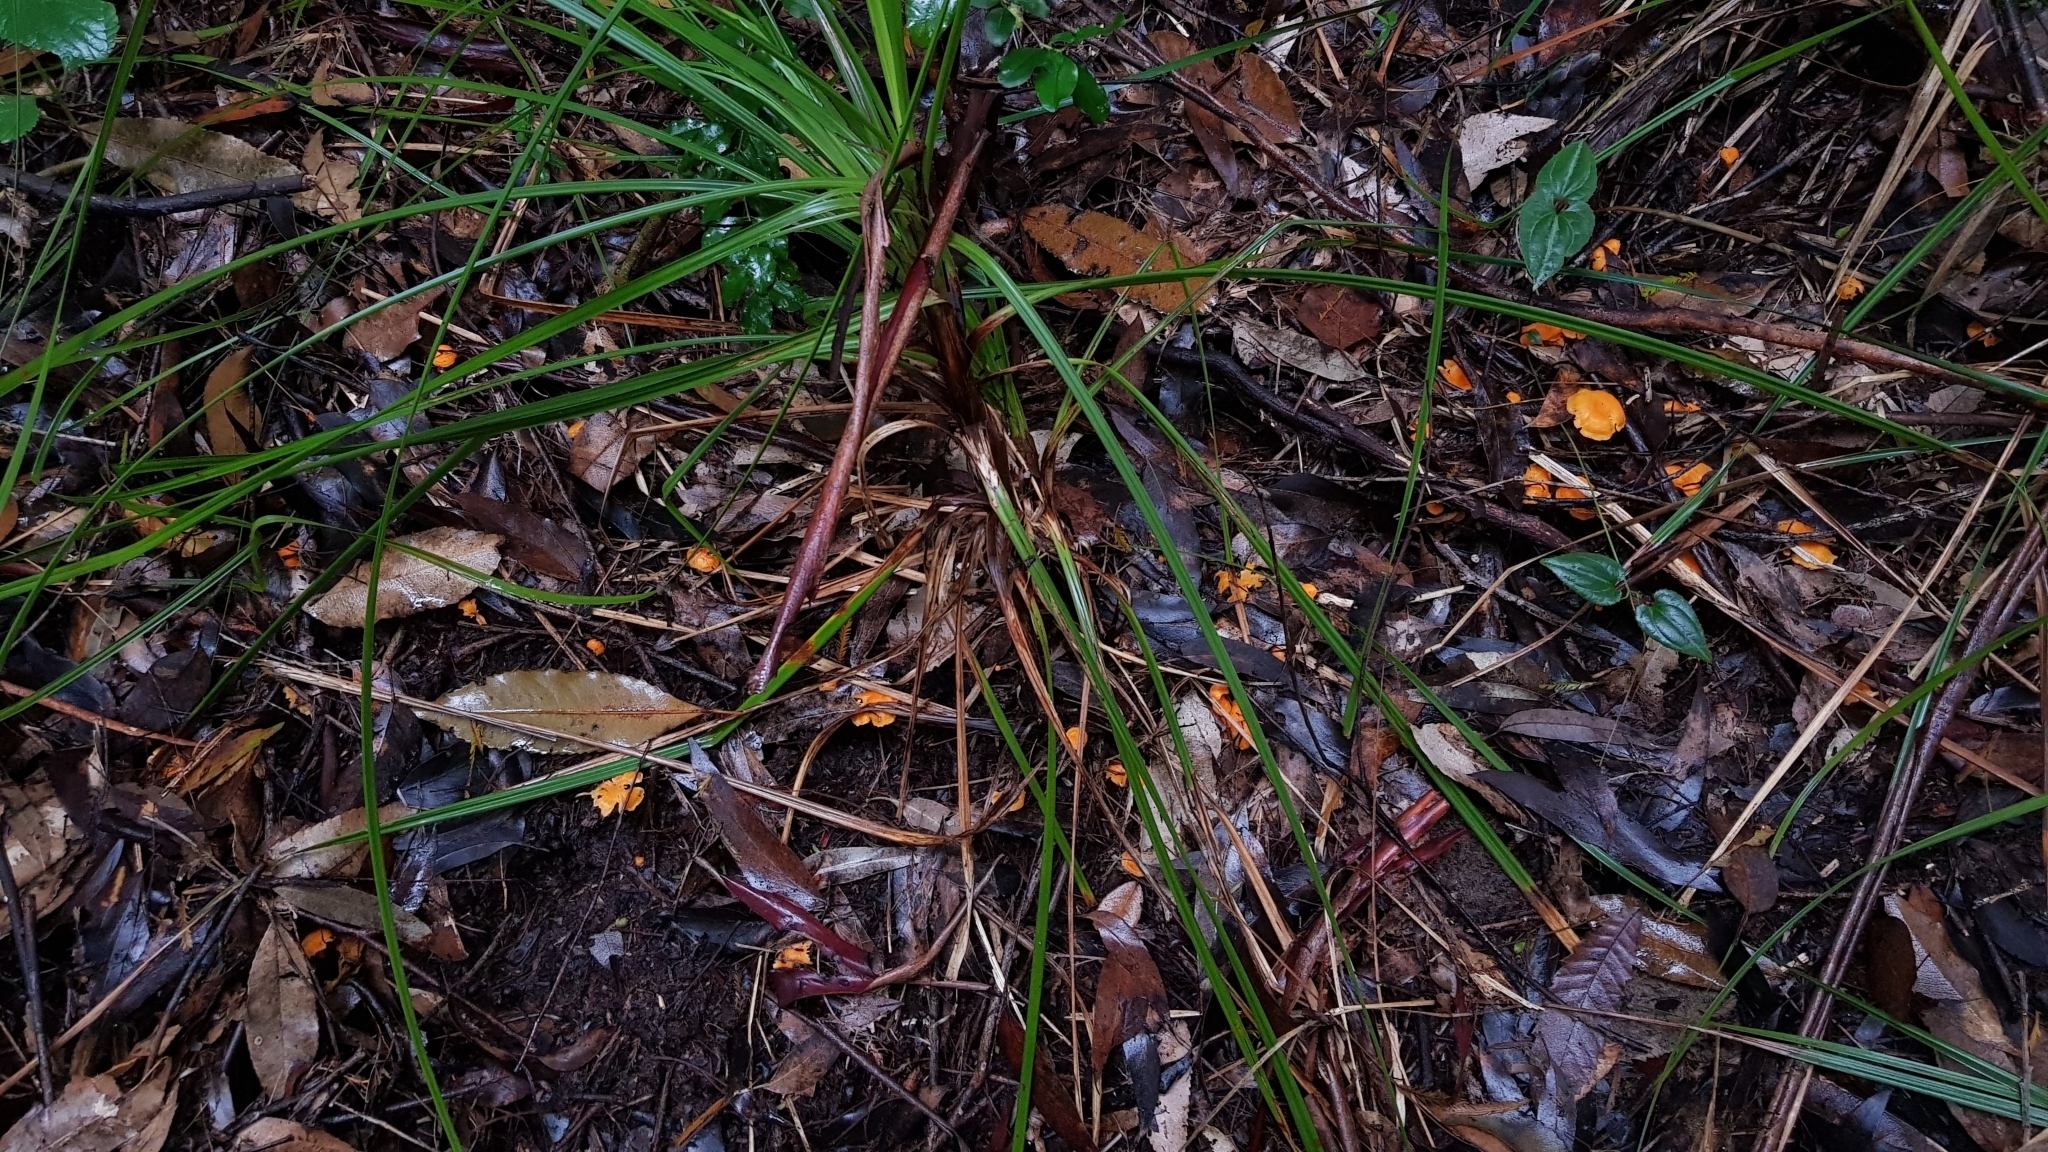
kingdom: Fungi
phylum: Basidiomycota
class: Agaricomycetes
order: Cantharellales
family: Hydnaceae
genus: Cantharellus
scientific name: Cantharellus
